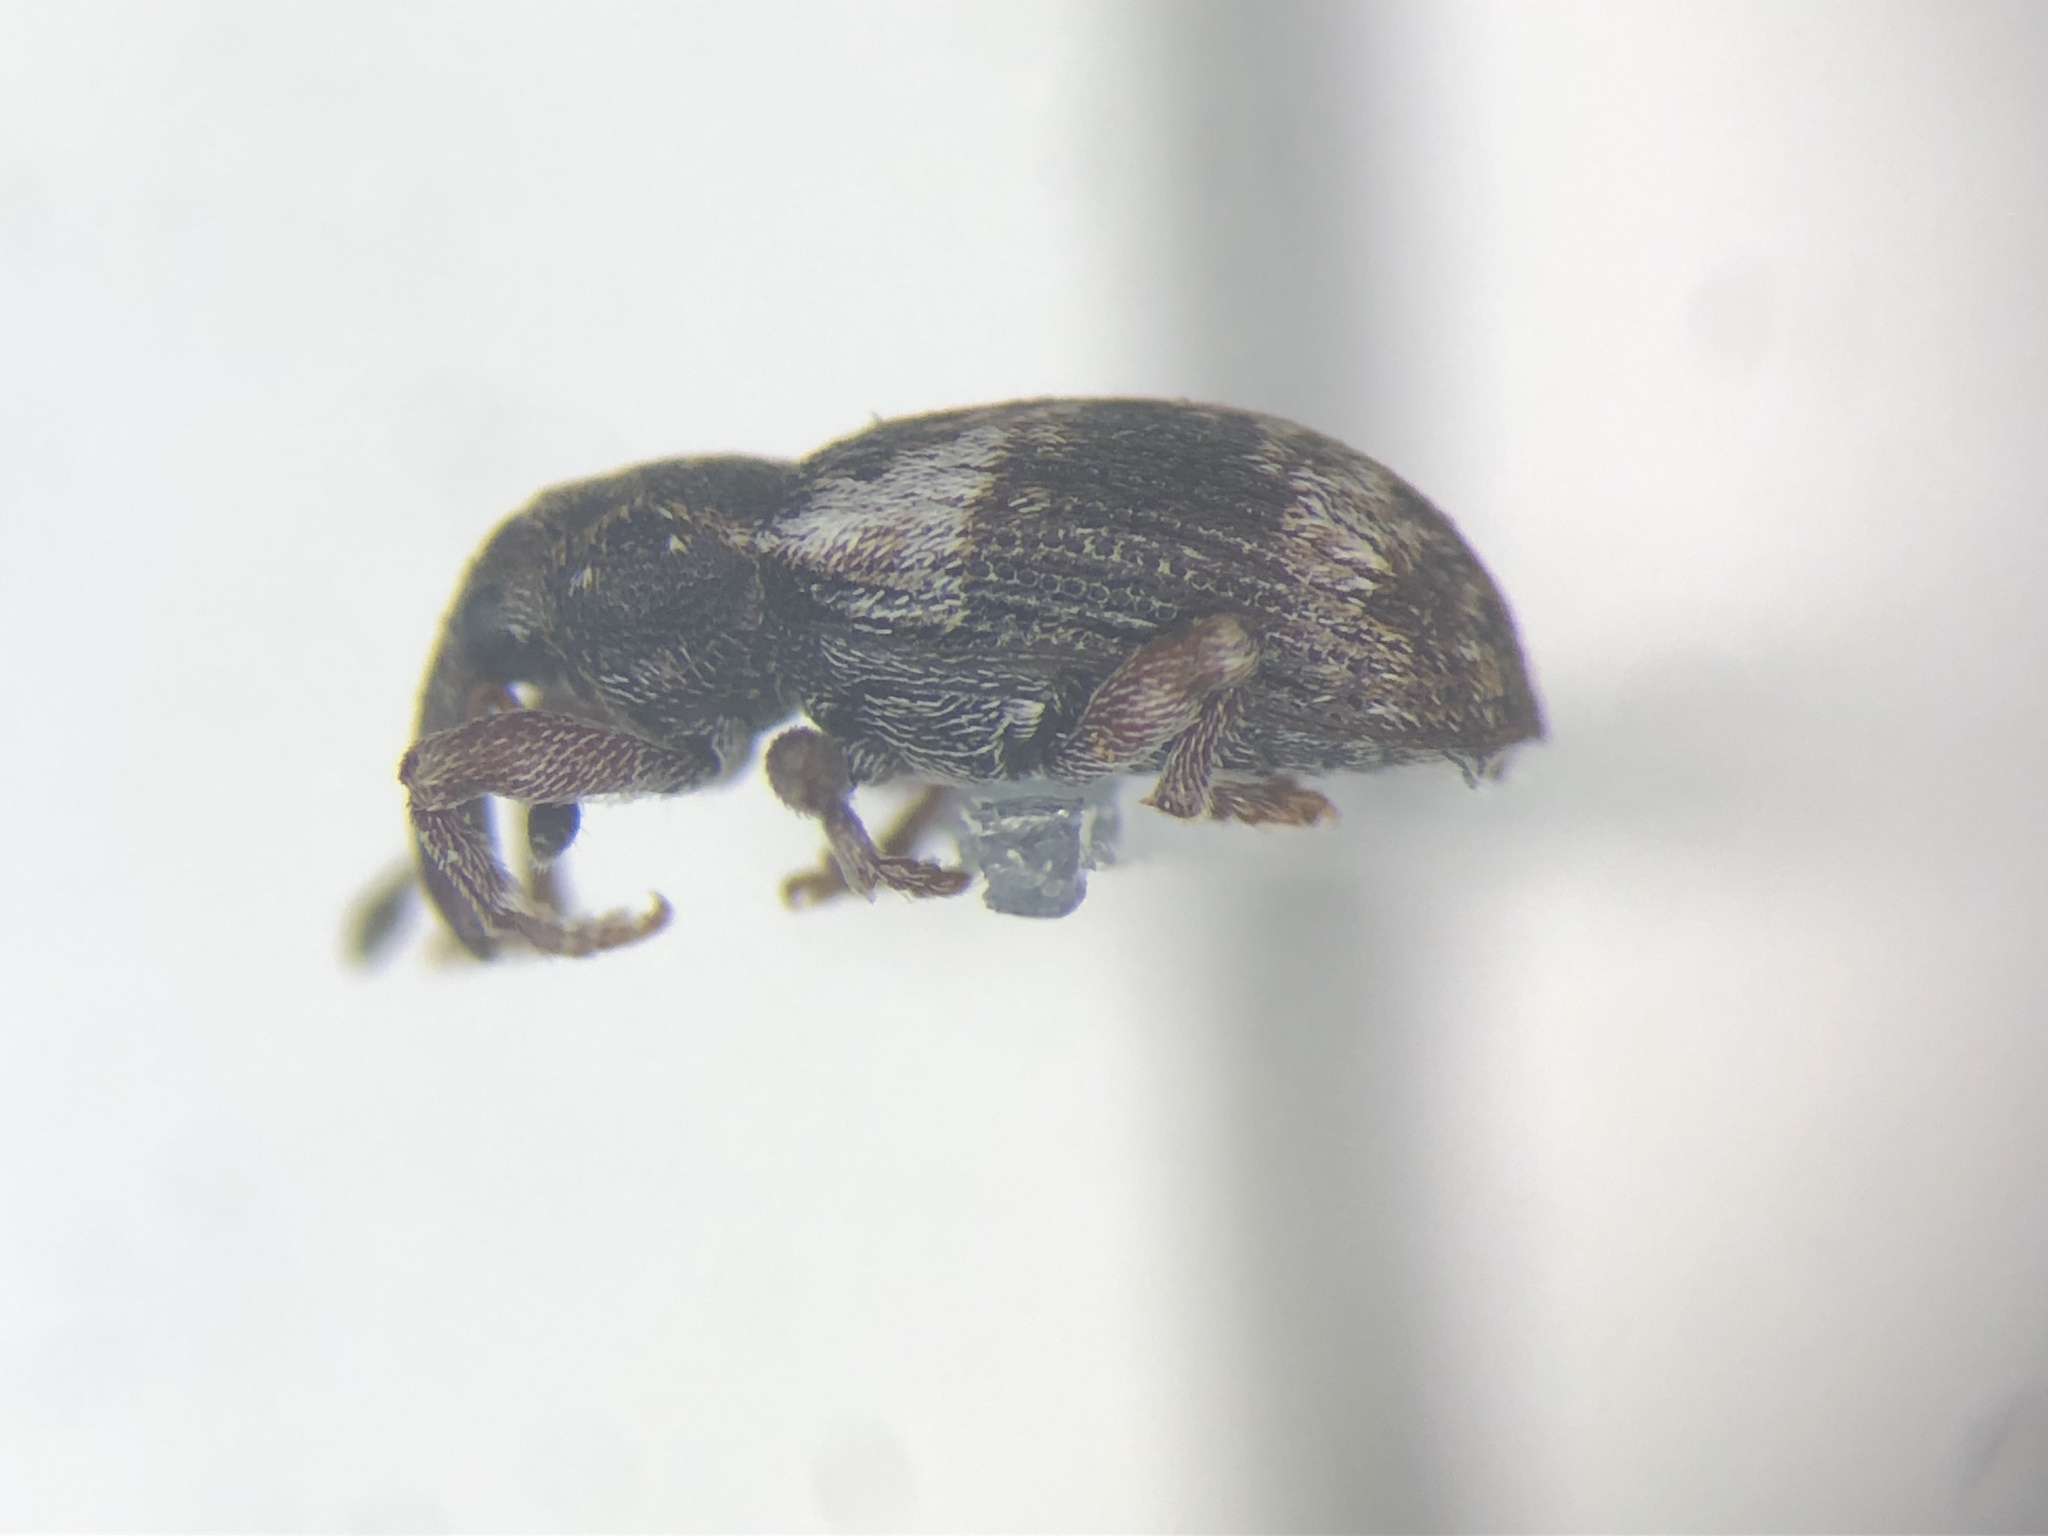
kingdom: Animalia
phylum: Arthropoda
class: Insecta
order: Coleoptera
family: Curculionidae
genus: Proctorus
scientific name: Proctorus decipiens
